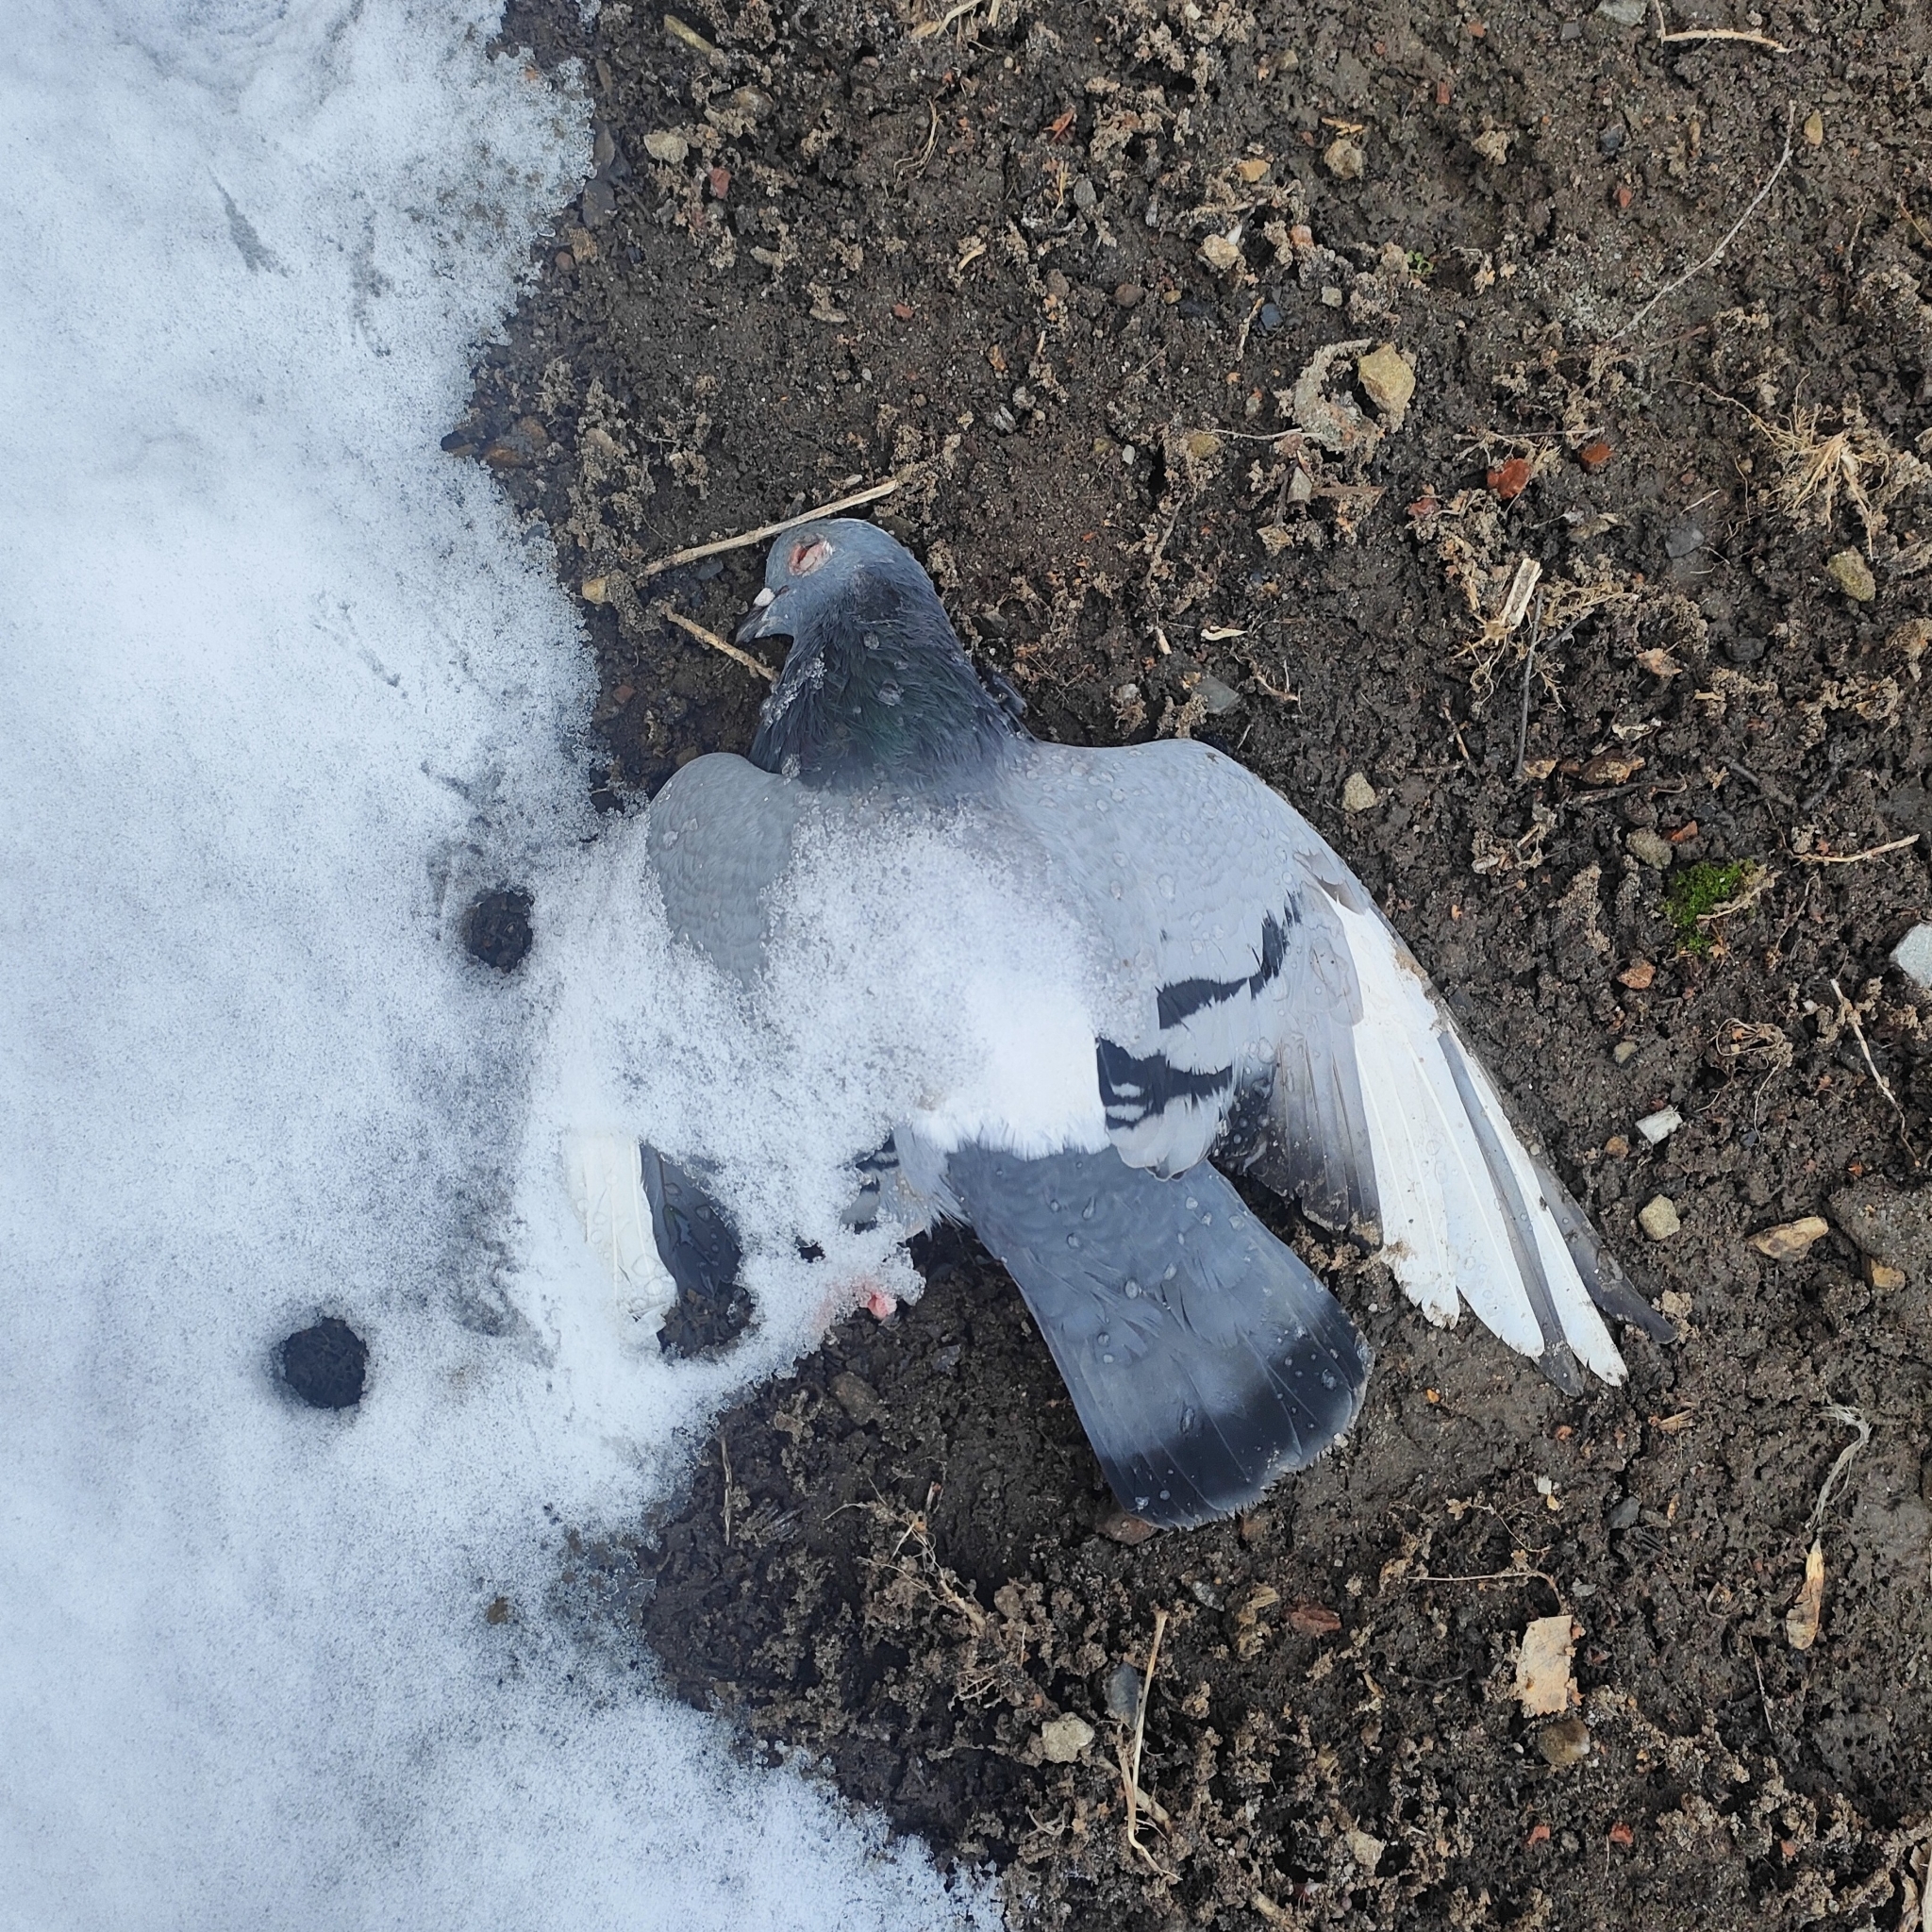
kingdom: Animalia
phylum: Chordata
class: Aves
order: Columbiformes
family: Columbidae
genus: Columba
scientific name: Columba livia
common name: Rock pigeon
